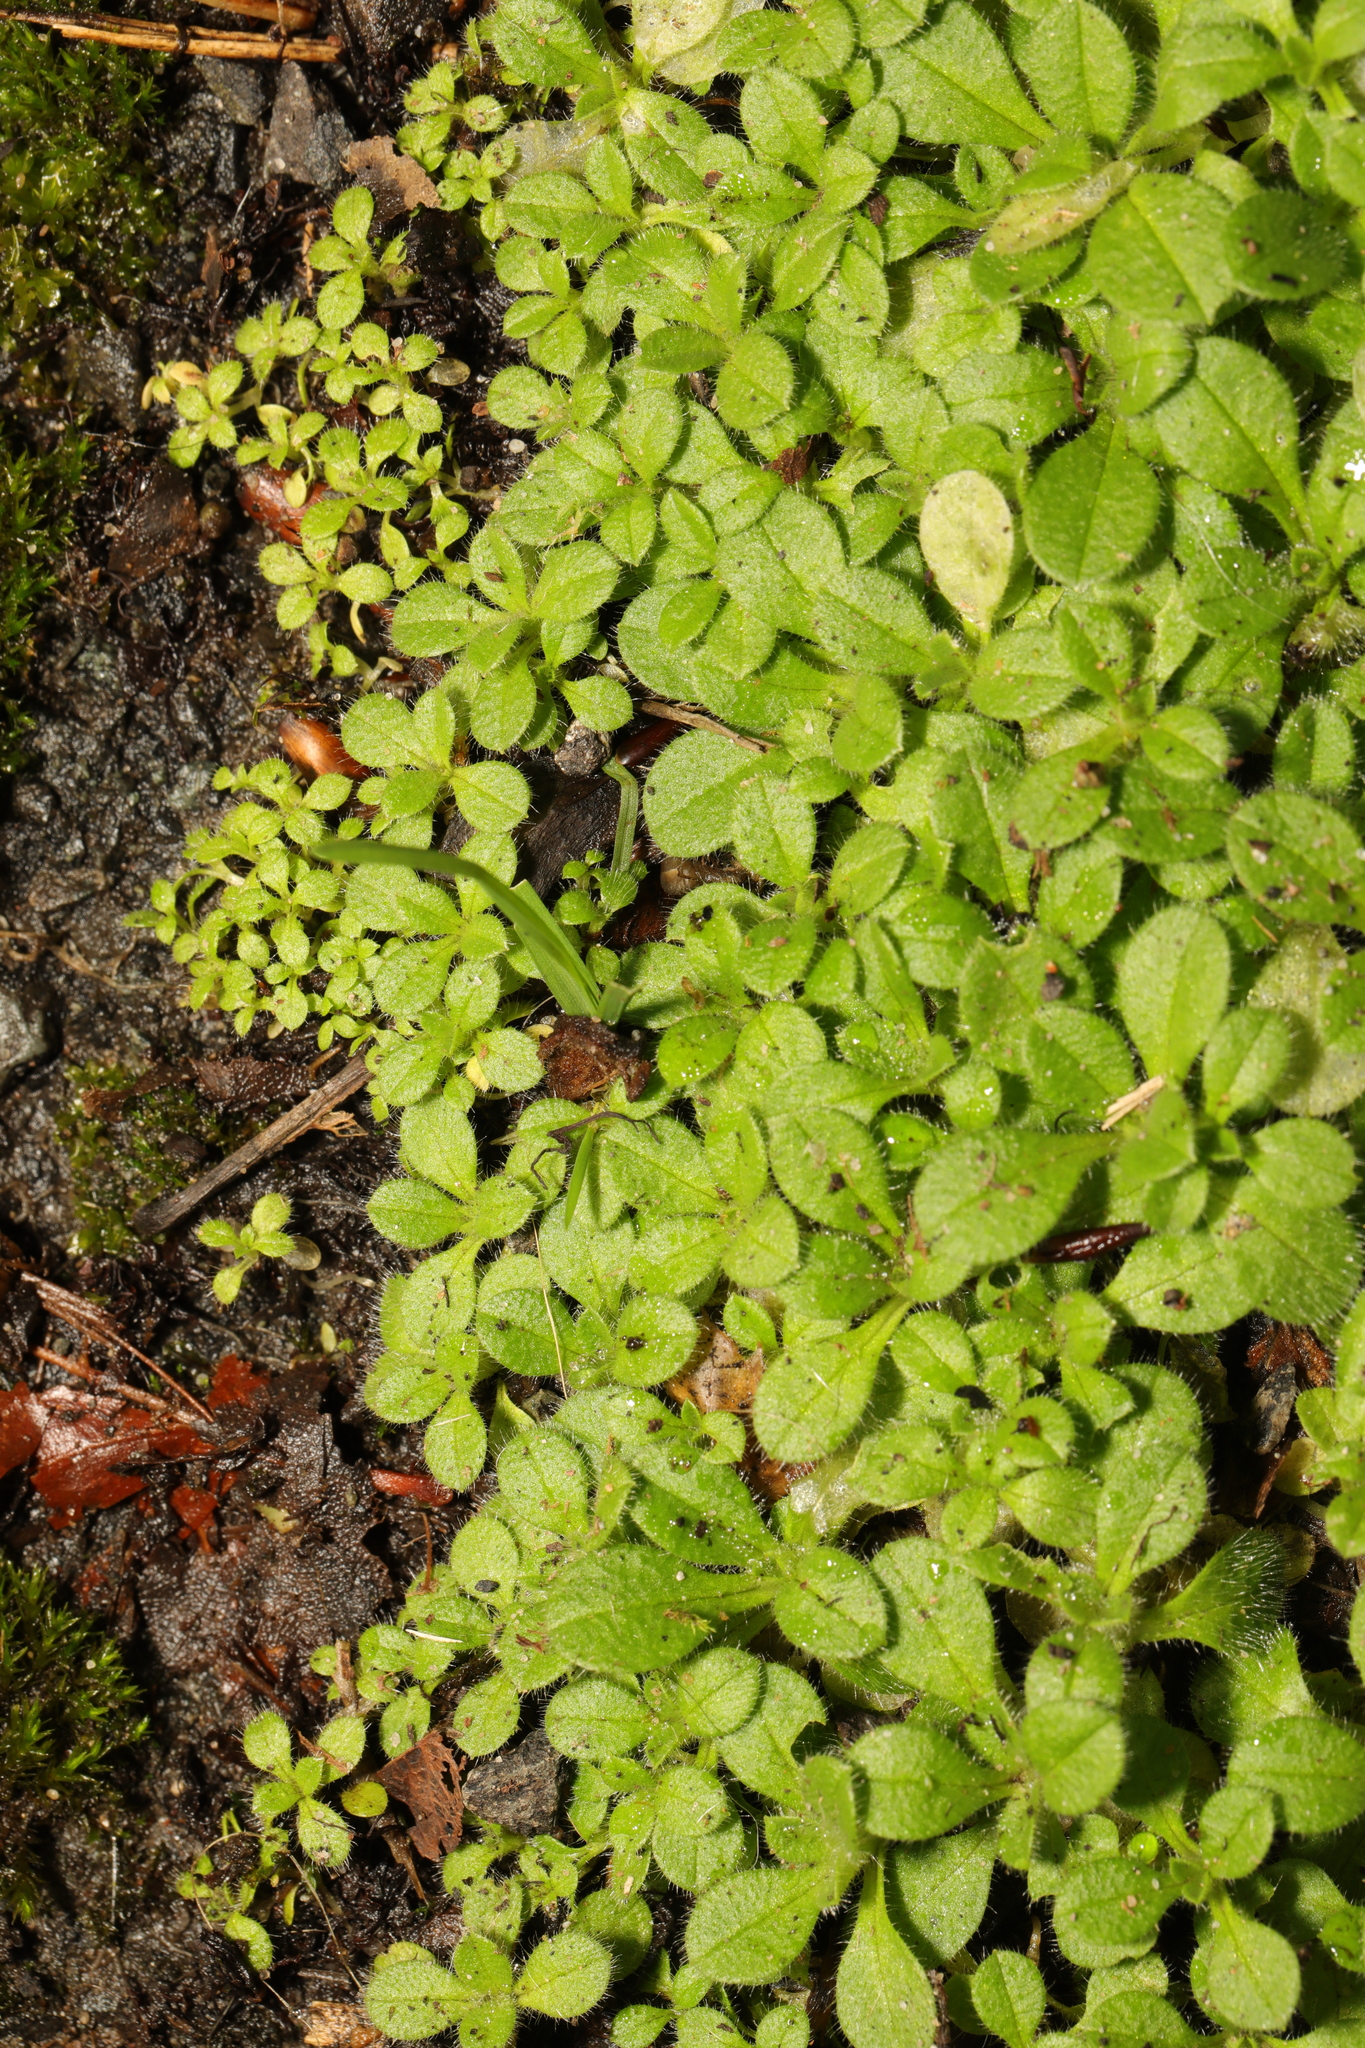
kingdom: Plantae
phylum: Tracheophyta
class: Magnoliopsida
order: Caryophyllales
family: Caryophyllaceae
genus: Cerastium
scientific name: Cerastium glomeratum
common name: Sticky chickweed
